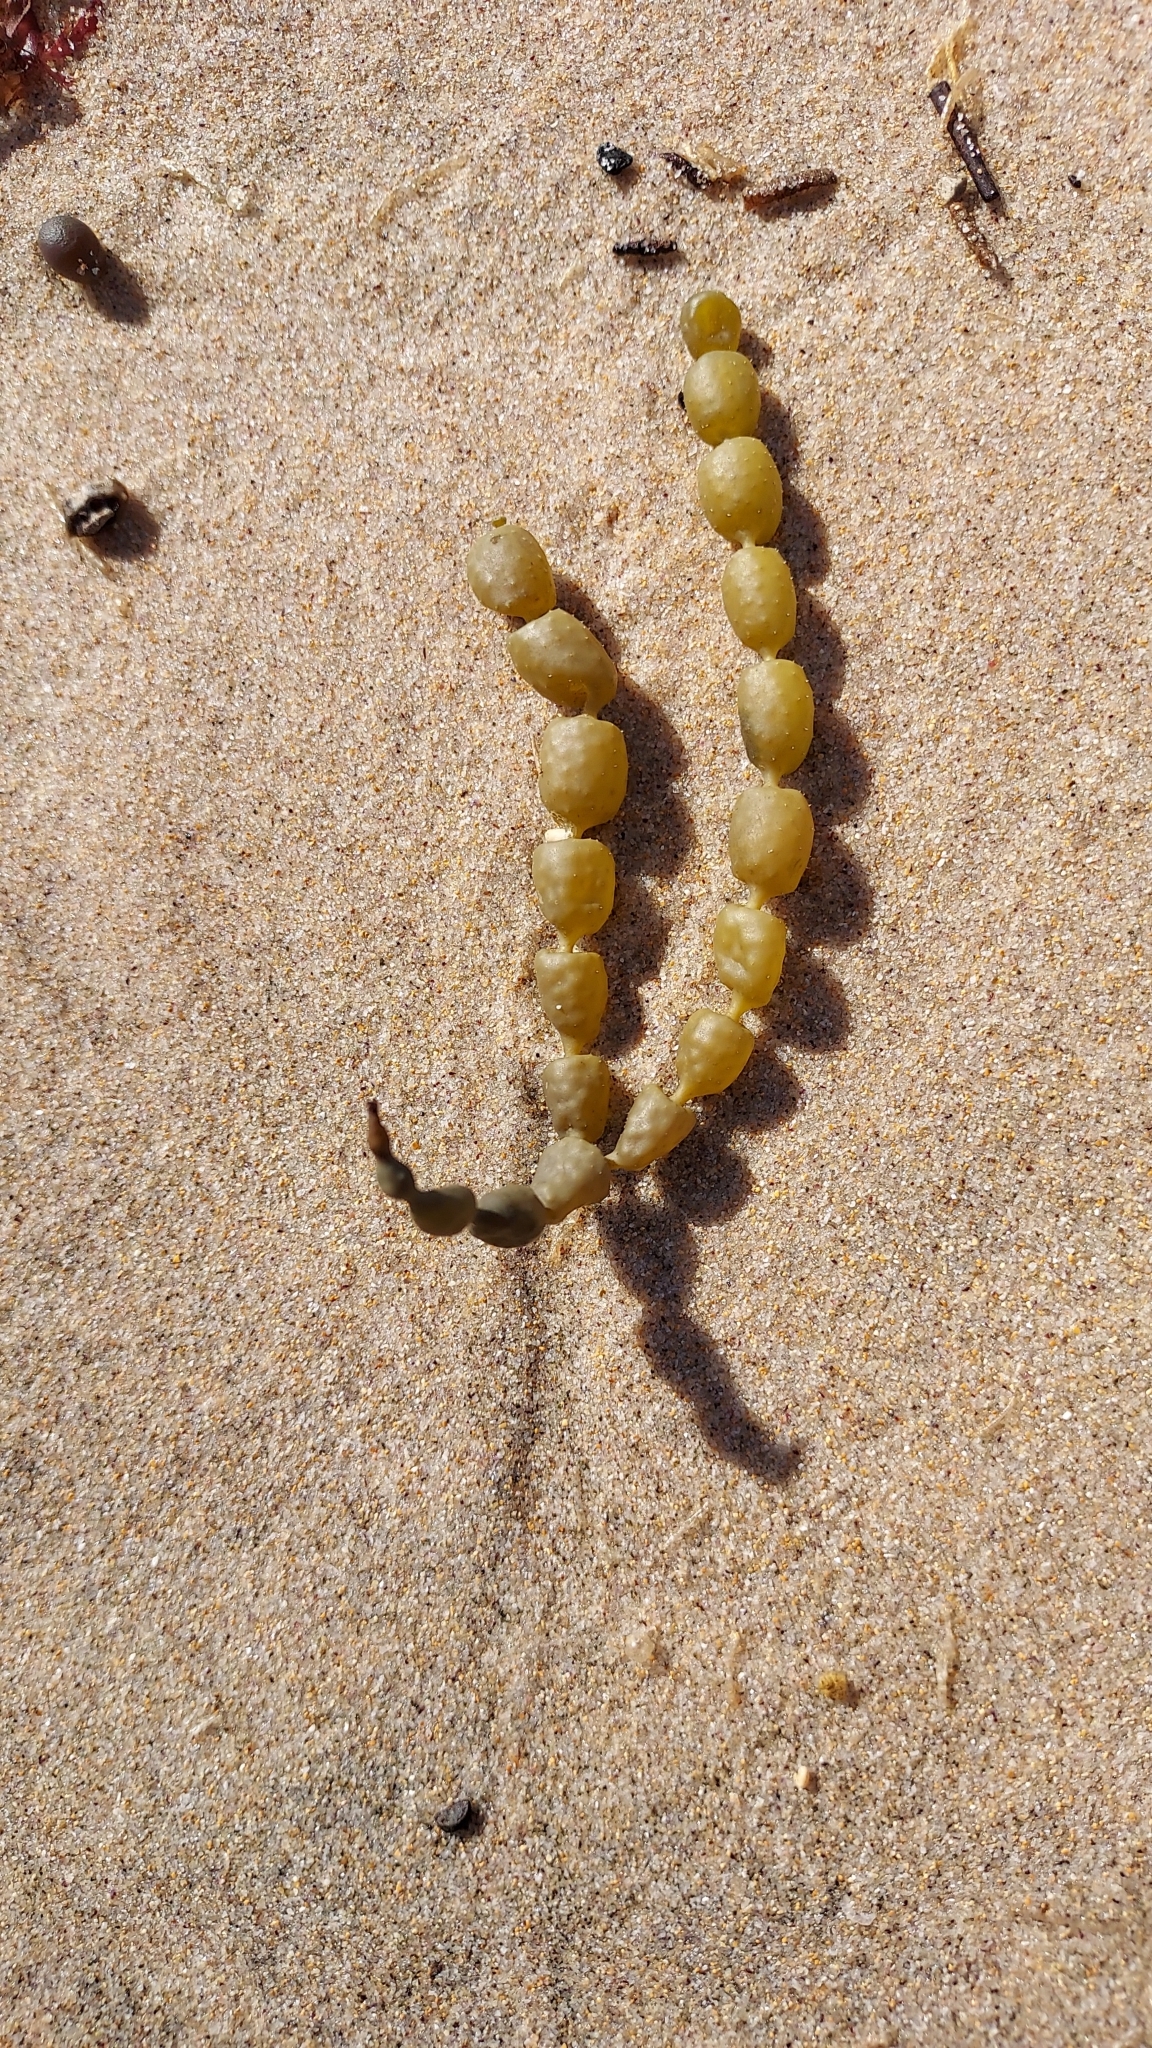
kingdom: Chromista
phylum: Ochrophyta
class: Phaeophyceae
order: Fucales
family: Hormosiraceae
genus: Hormosira
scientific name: Hormosira banksii
